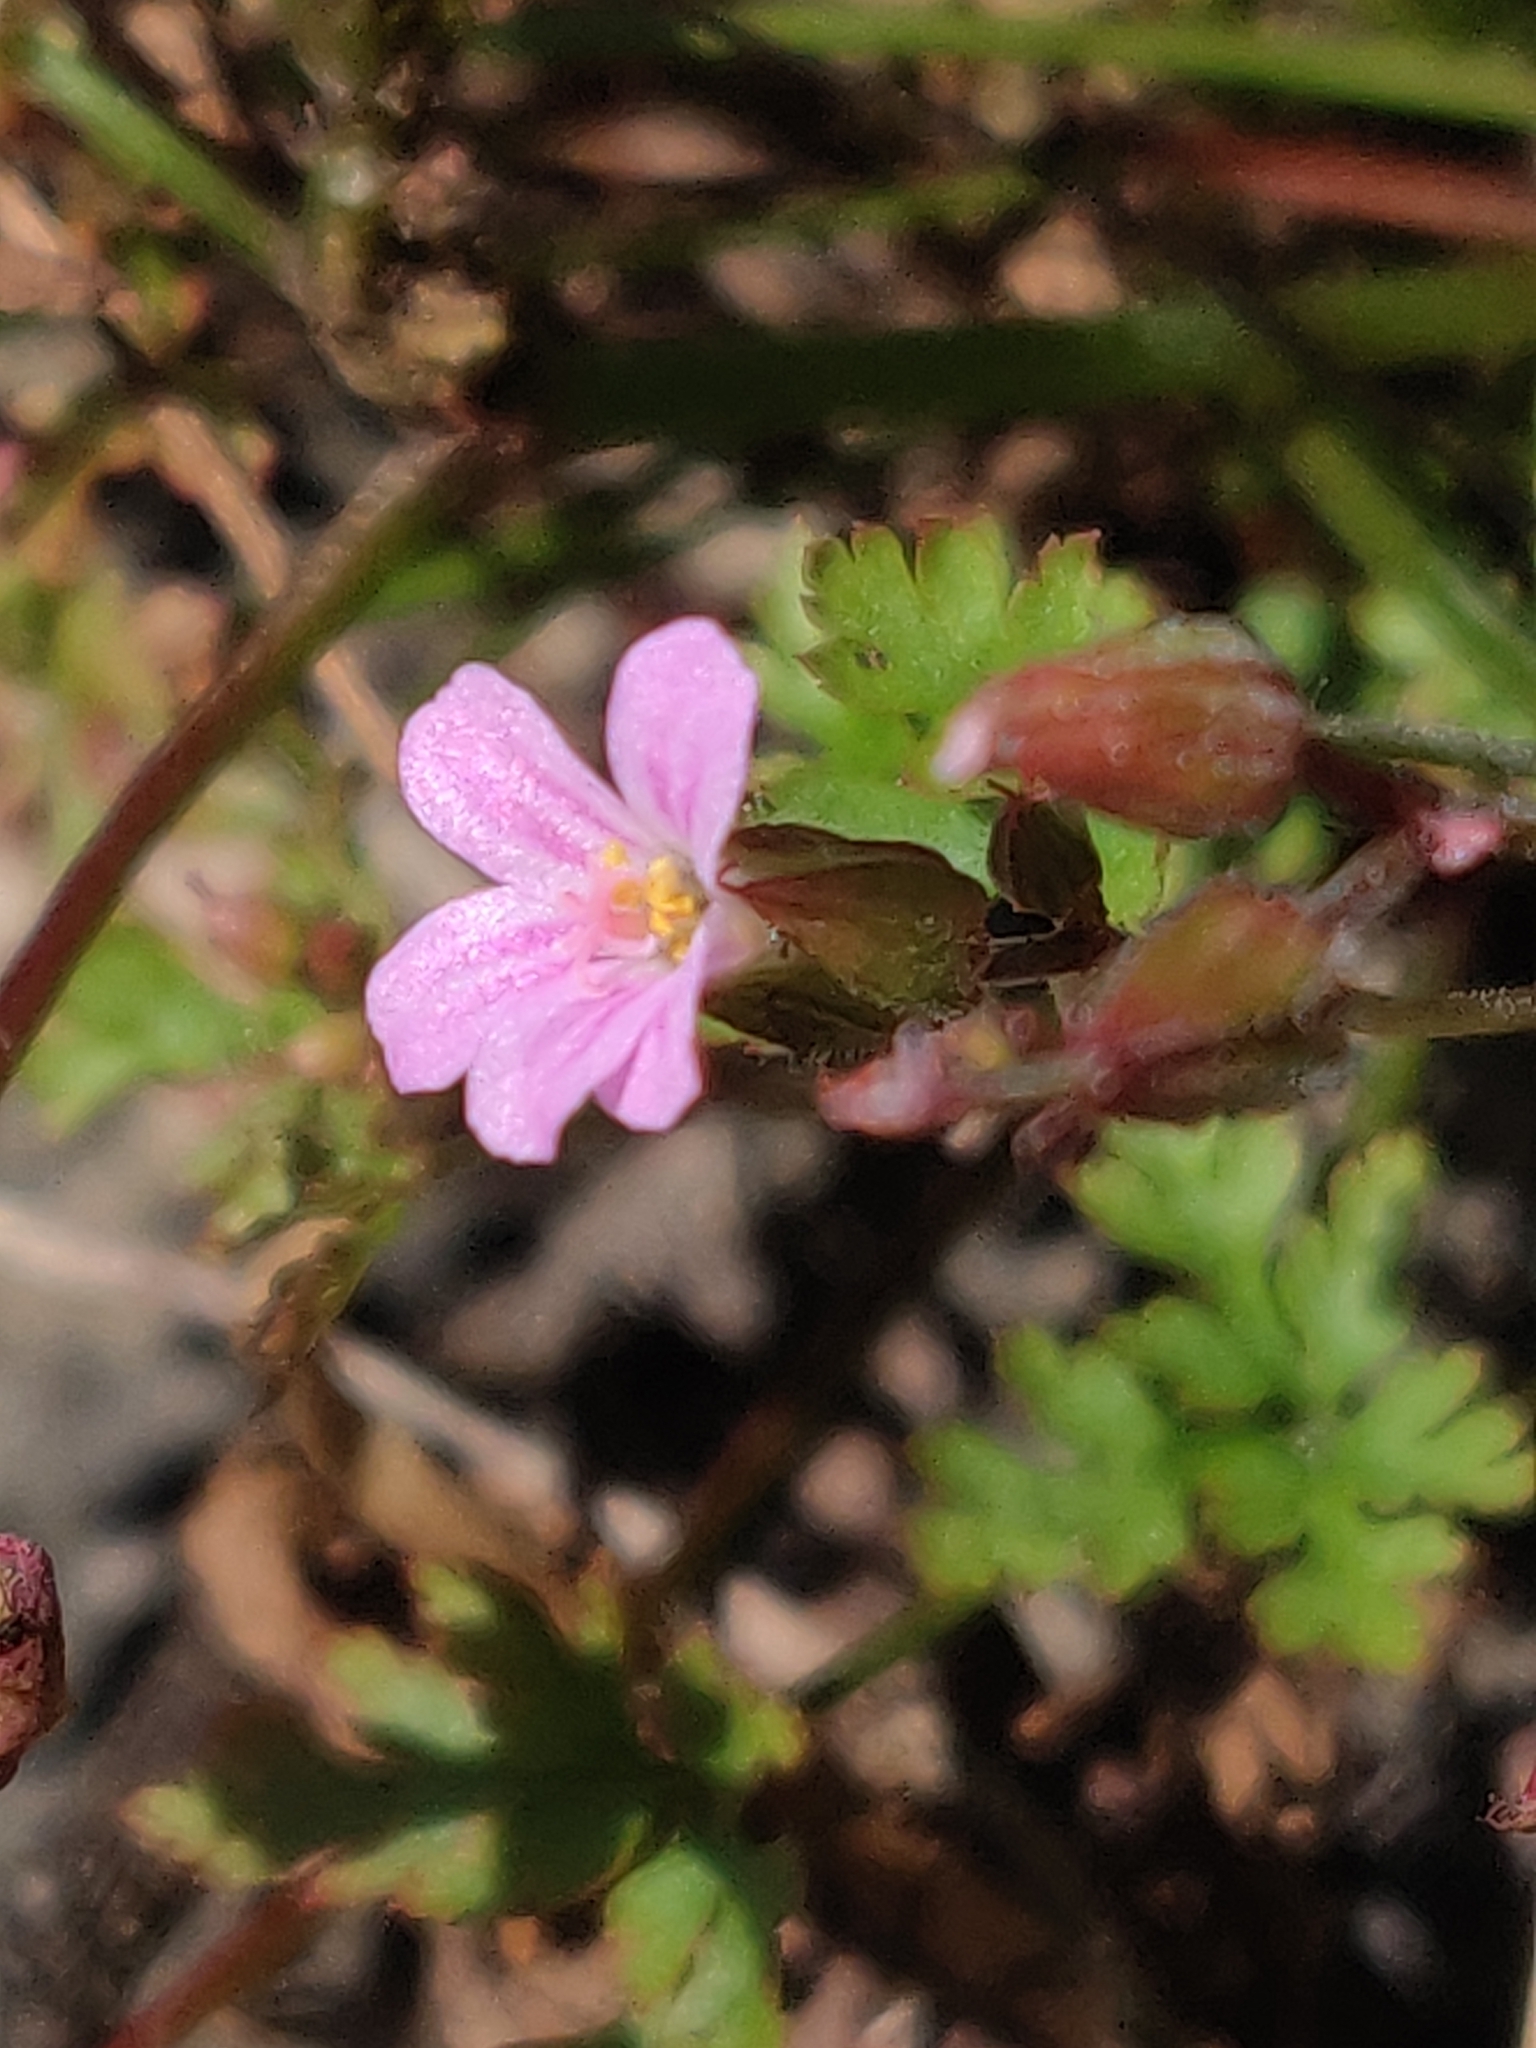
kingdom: Plantae
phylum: Tracheophyta
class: Magnoliopsida
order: Geraniales
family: Geraniaceae
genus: Geranium
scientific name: Geranium robertianum
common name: Herb-robert
